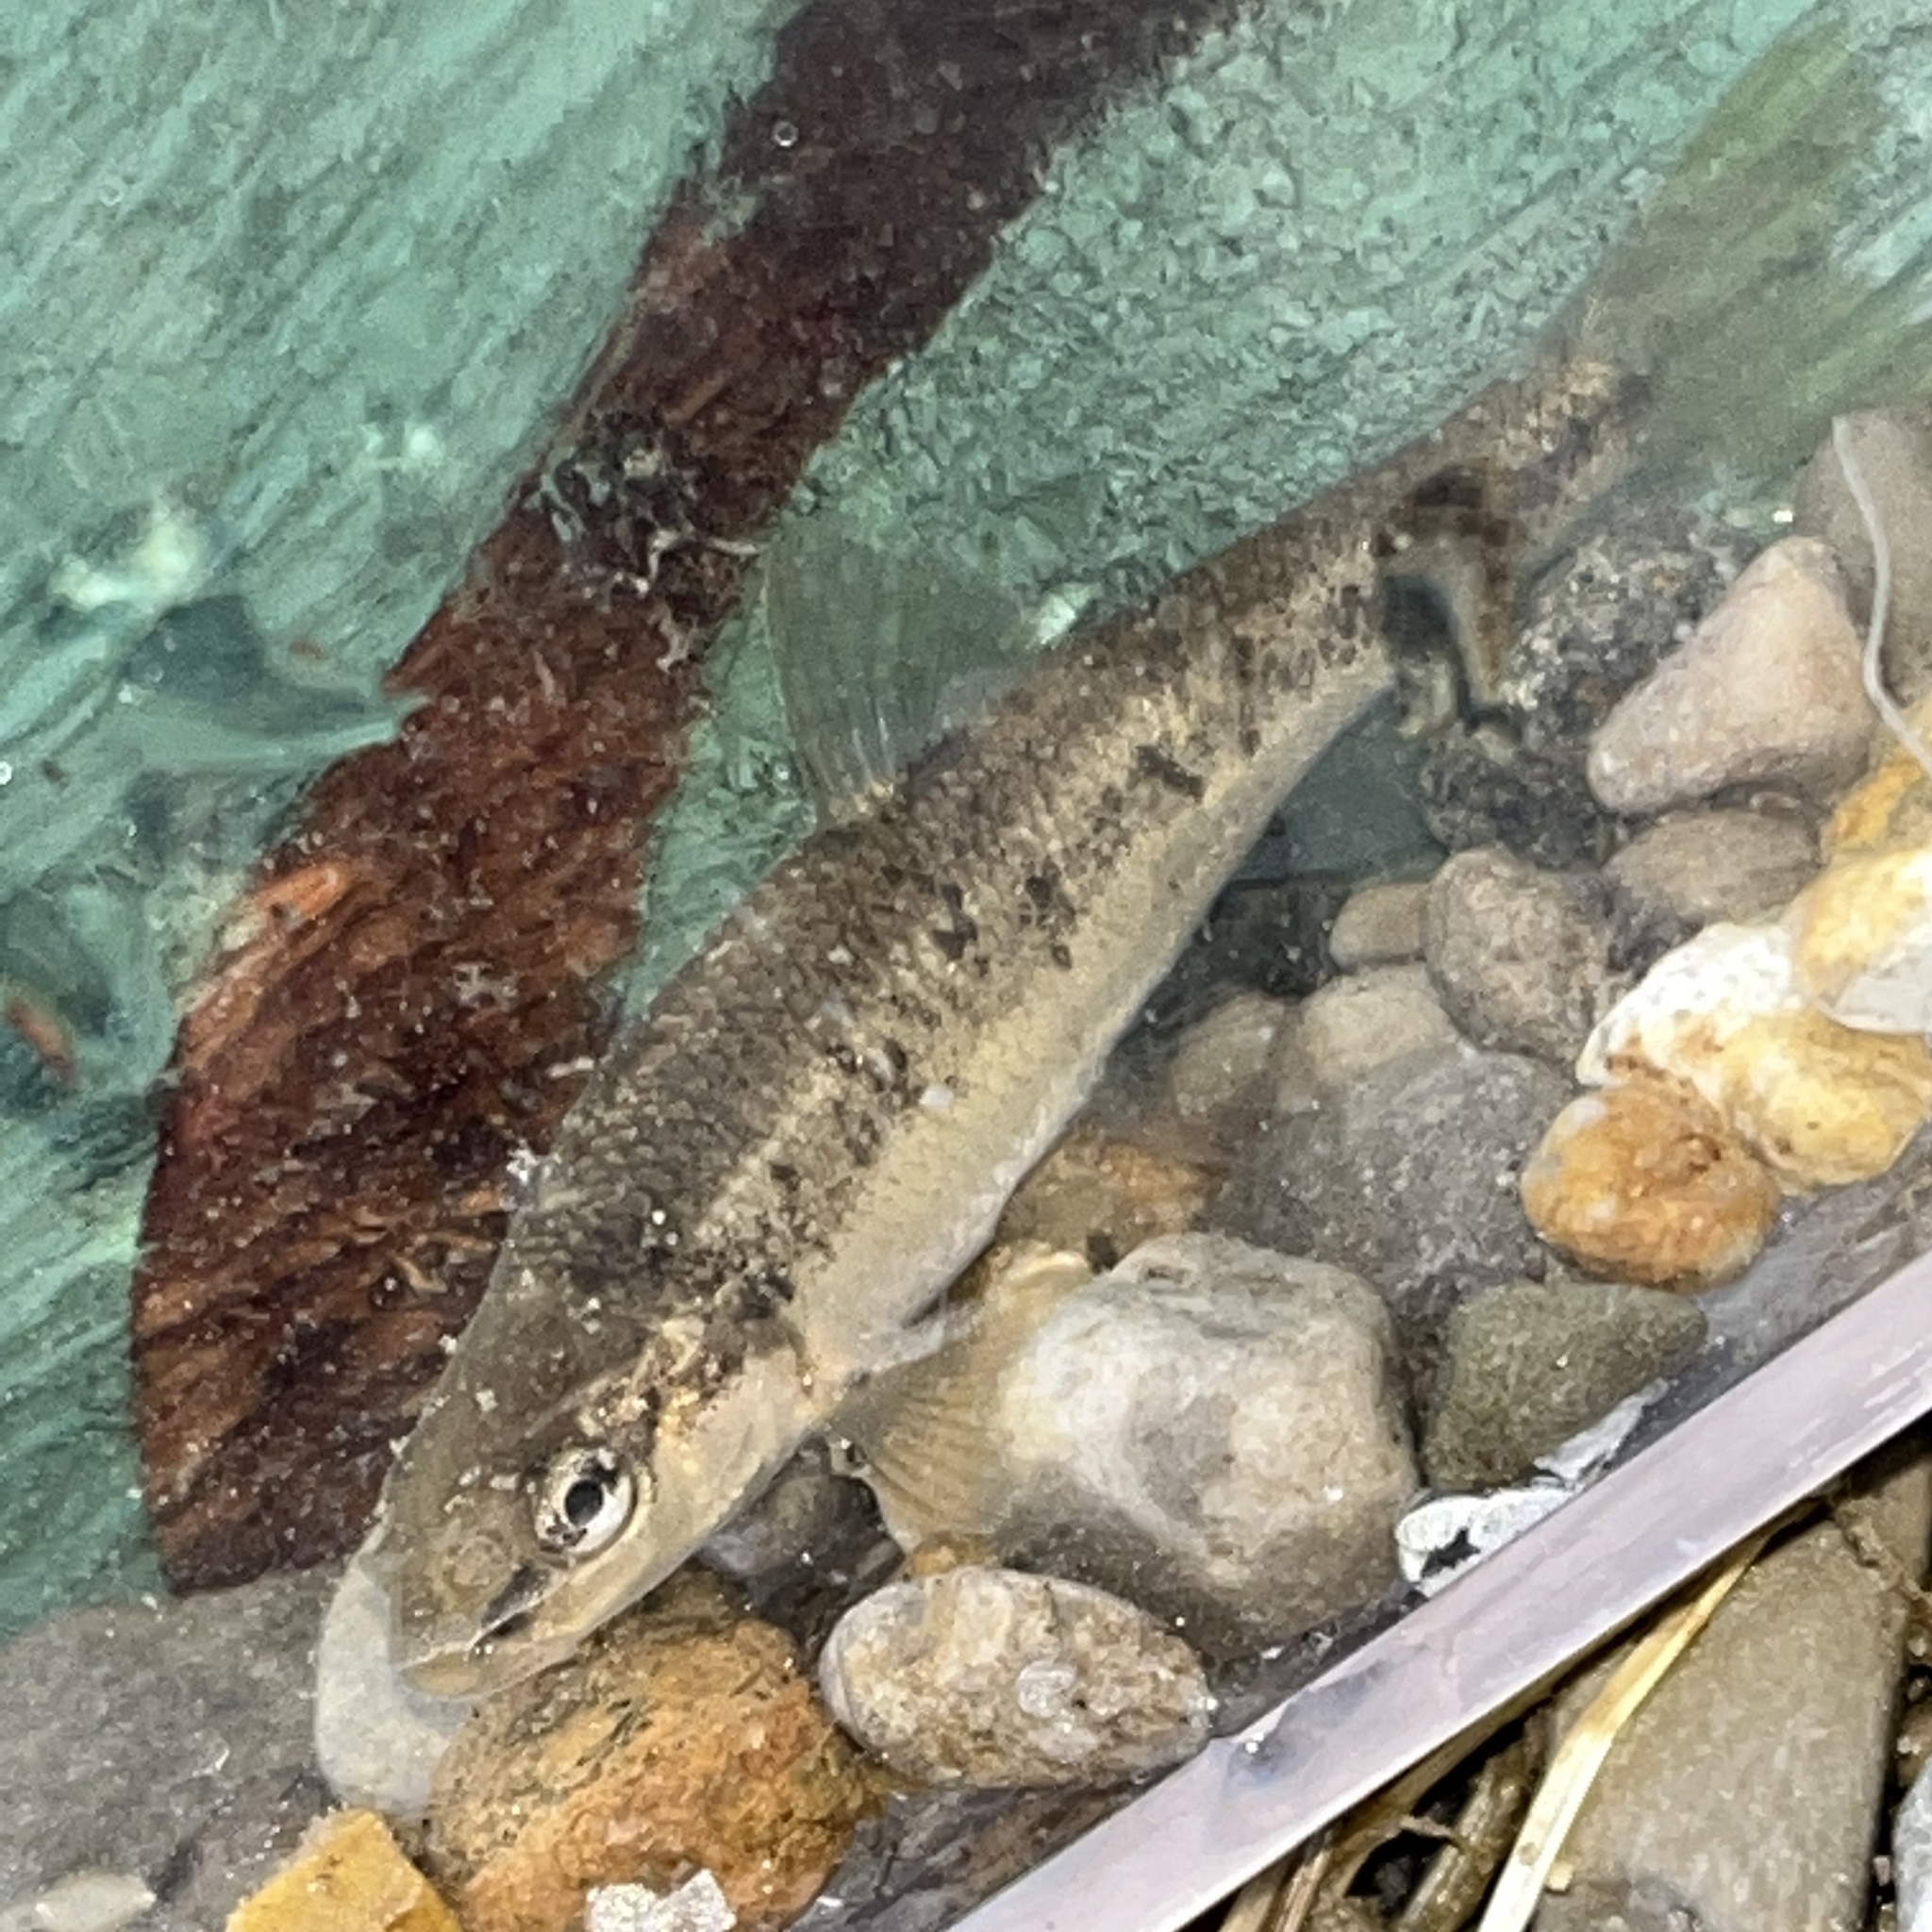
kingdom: Animalia
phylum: Chordata
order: Cypriniformes
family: Cyprinidae
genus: Campostoma
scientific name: Campostoma anomalum
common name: Central stoneroller
